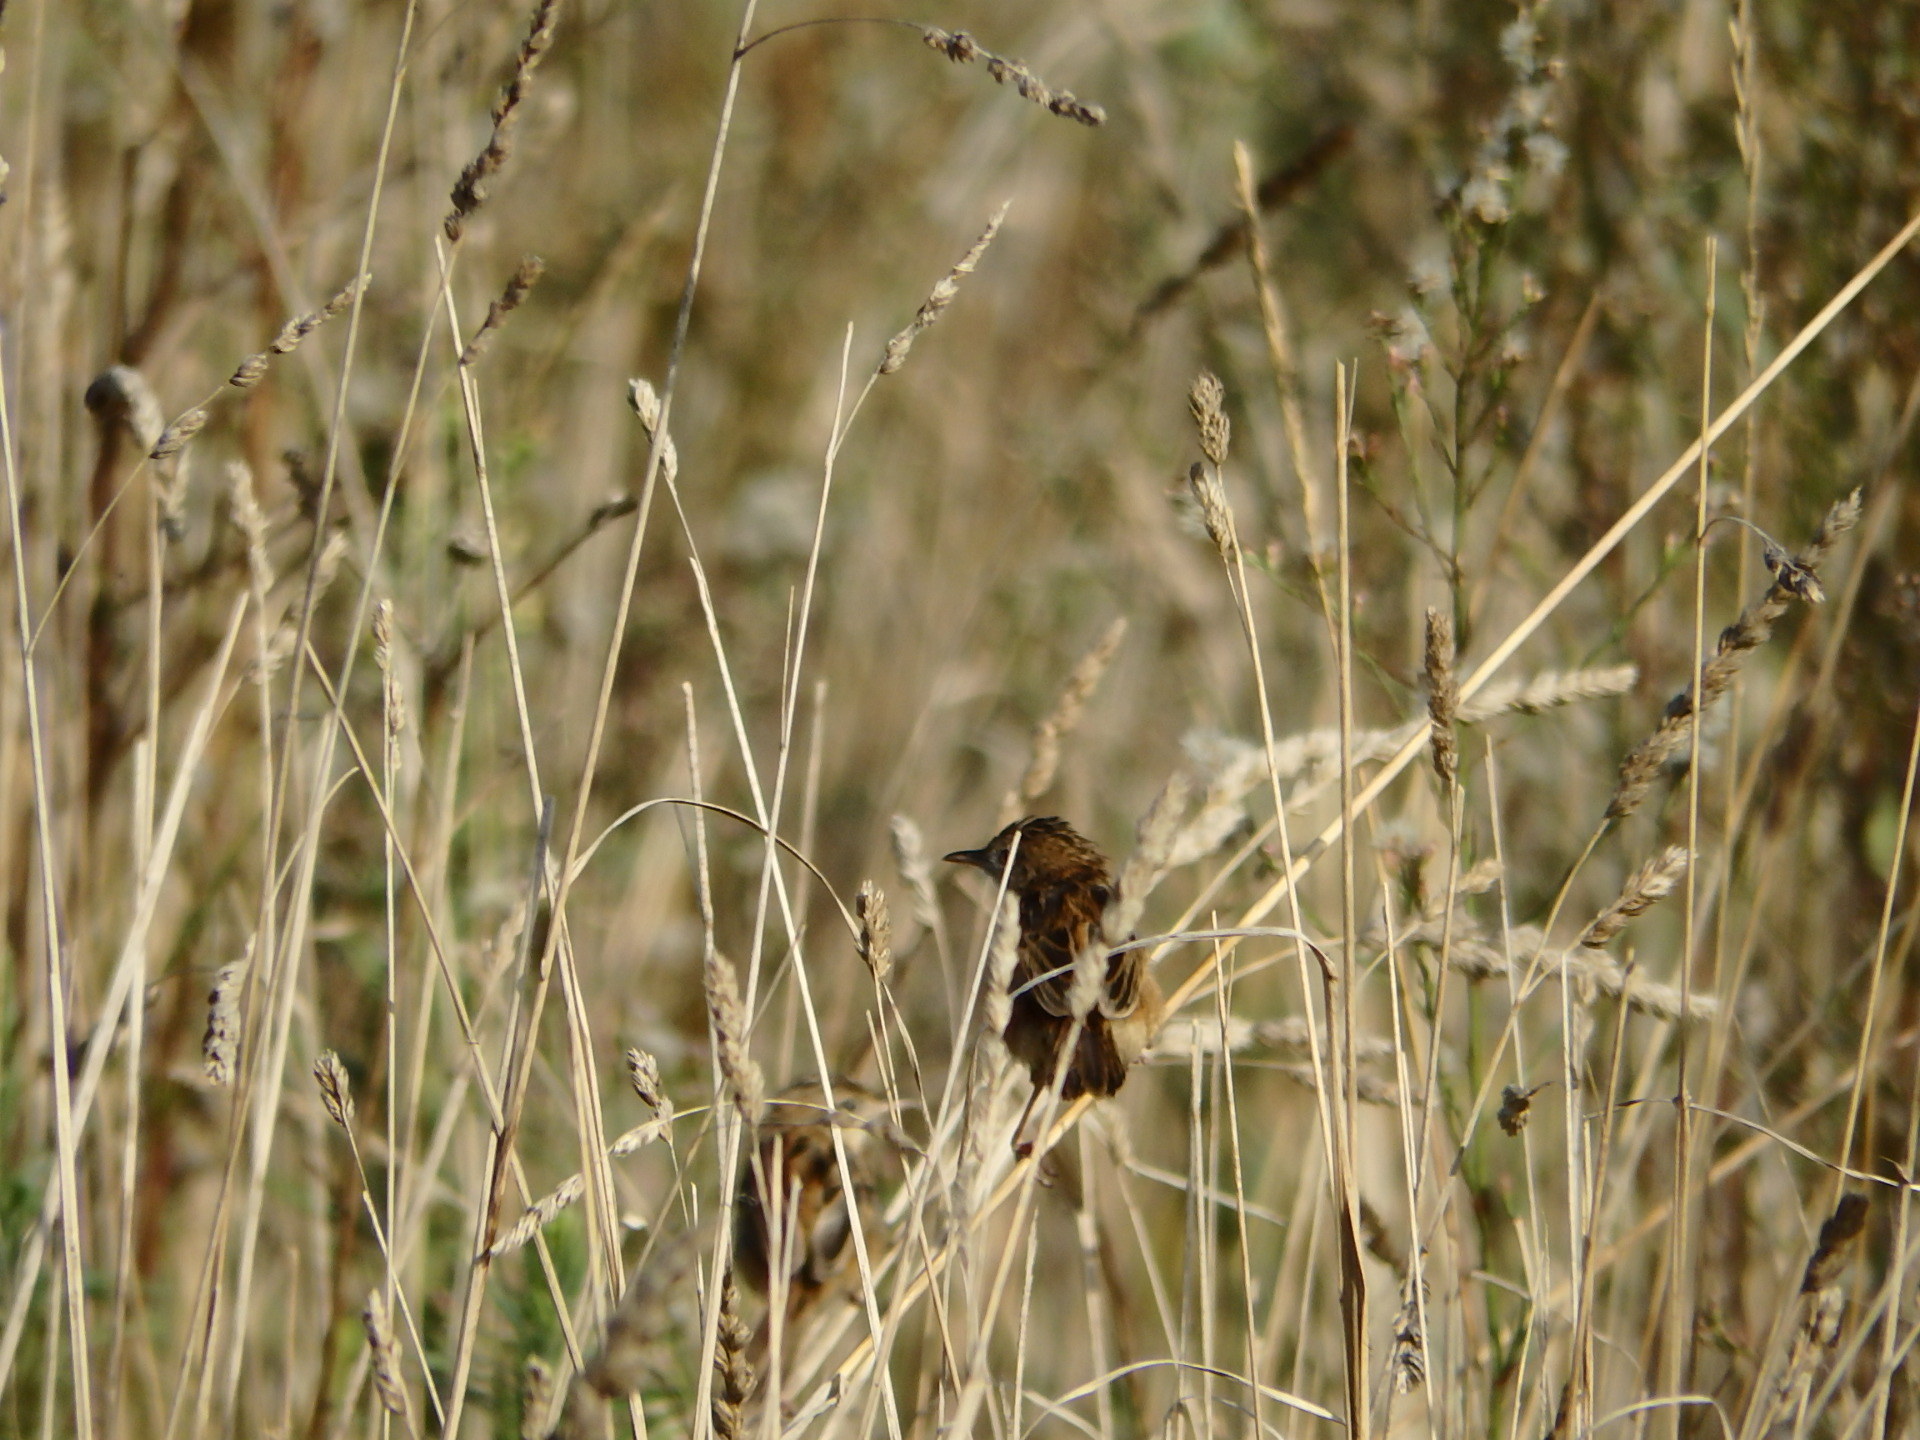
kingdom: Animalia
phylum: Chordata
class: Aves
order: Passeriformes
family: Cisticolidae
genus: Cisticola
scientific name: Cisticola juncidis
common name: Zitting cisticola
